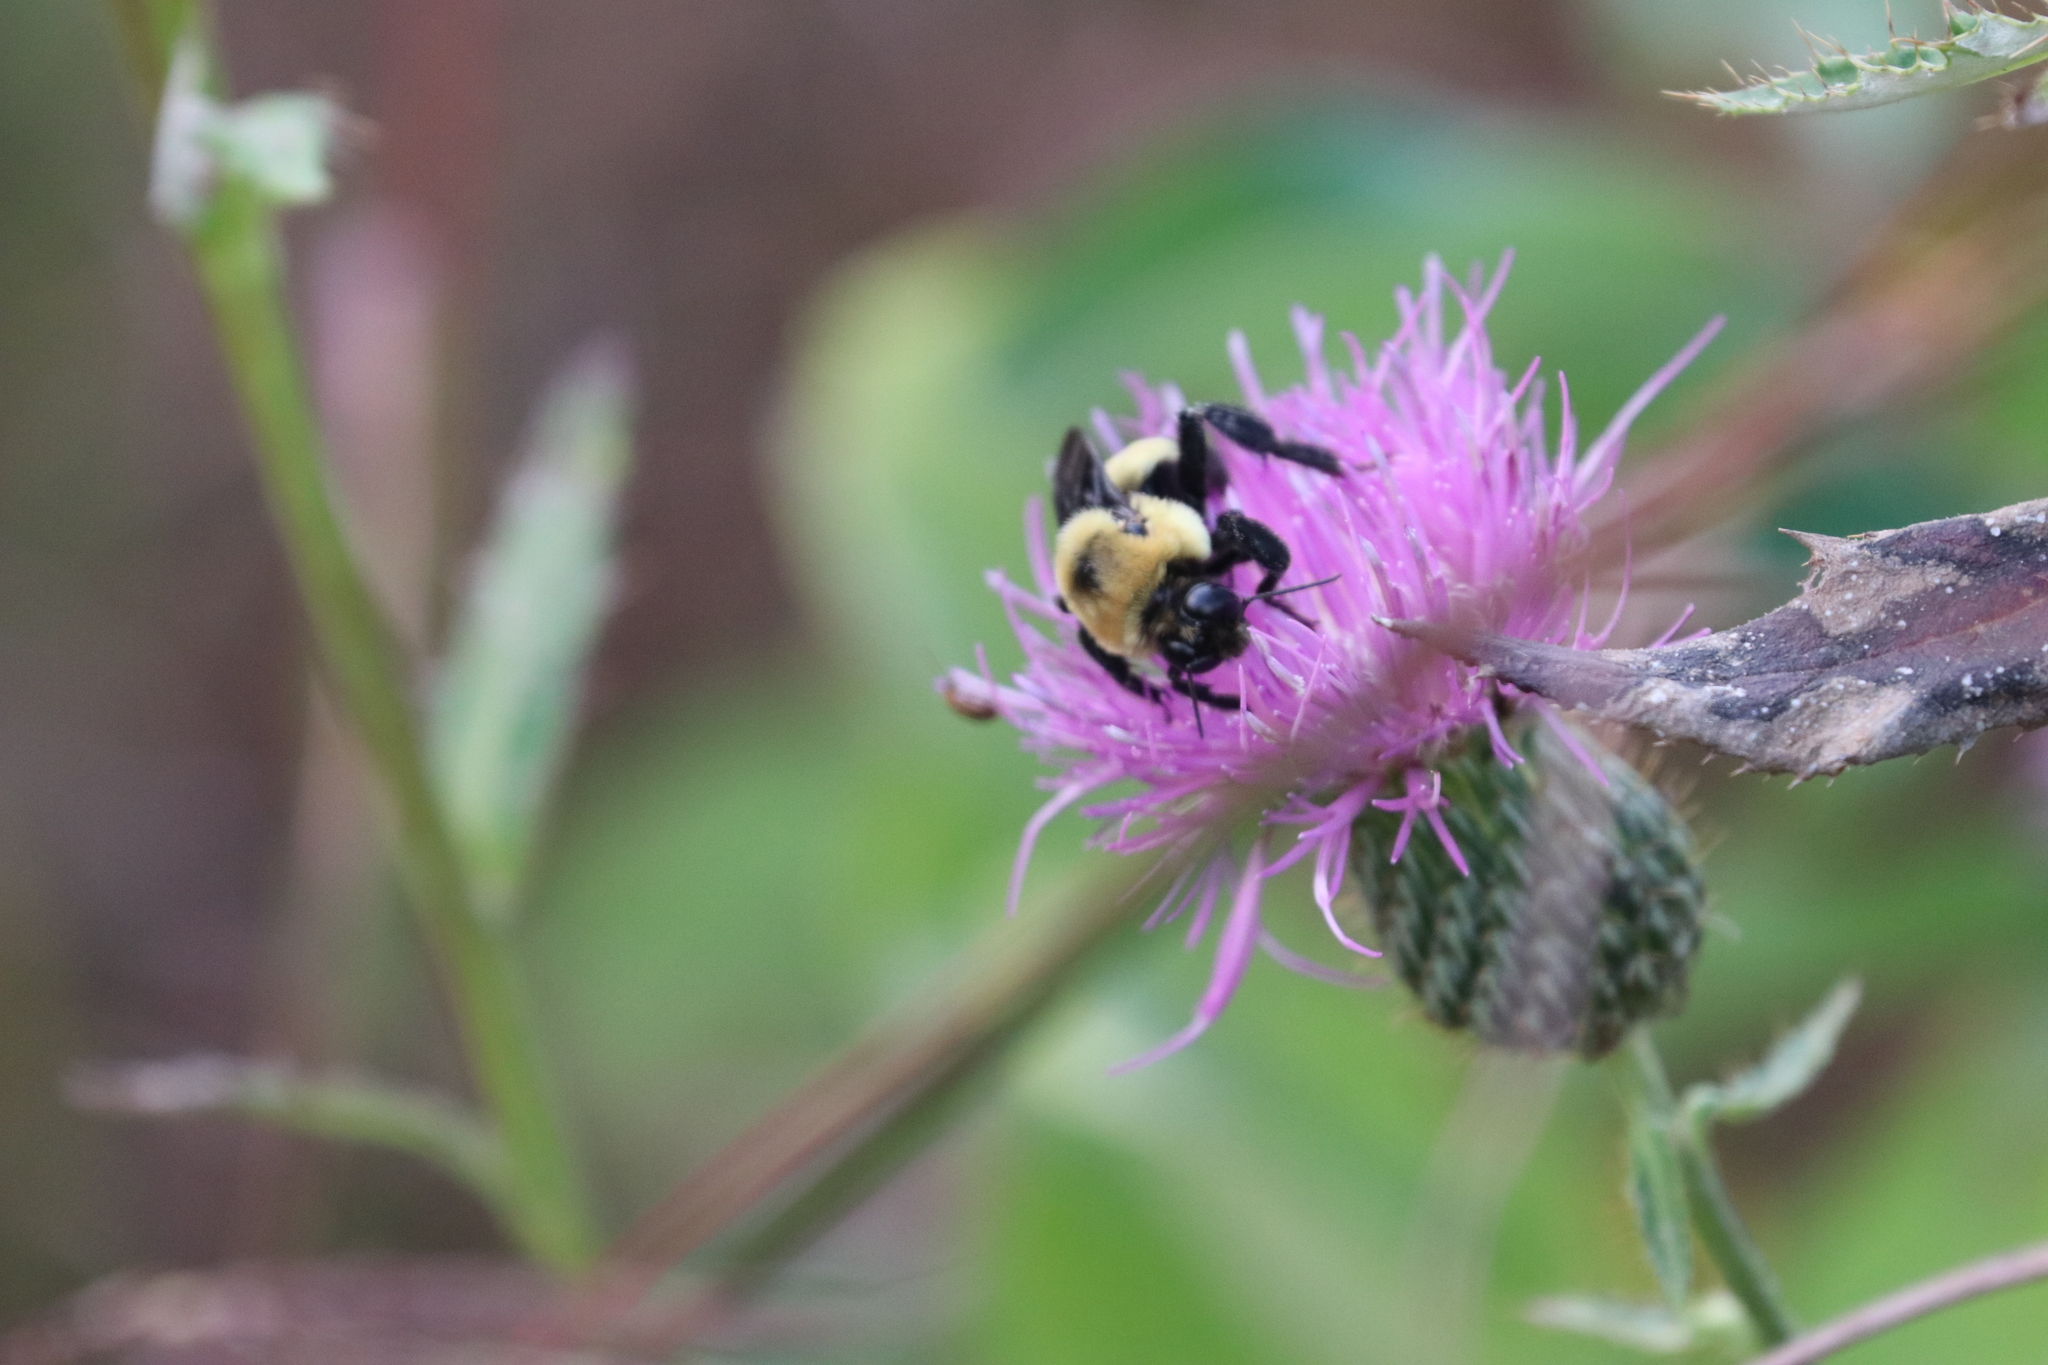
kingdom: Animalia
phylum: Arthropoda
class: Insecta
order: Hymenoptera
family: Apidae
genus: Bombus
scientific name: Bombus fraternus
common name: Southern plains bumble bee
